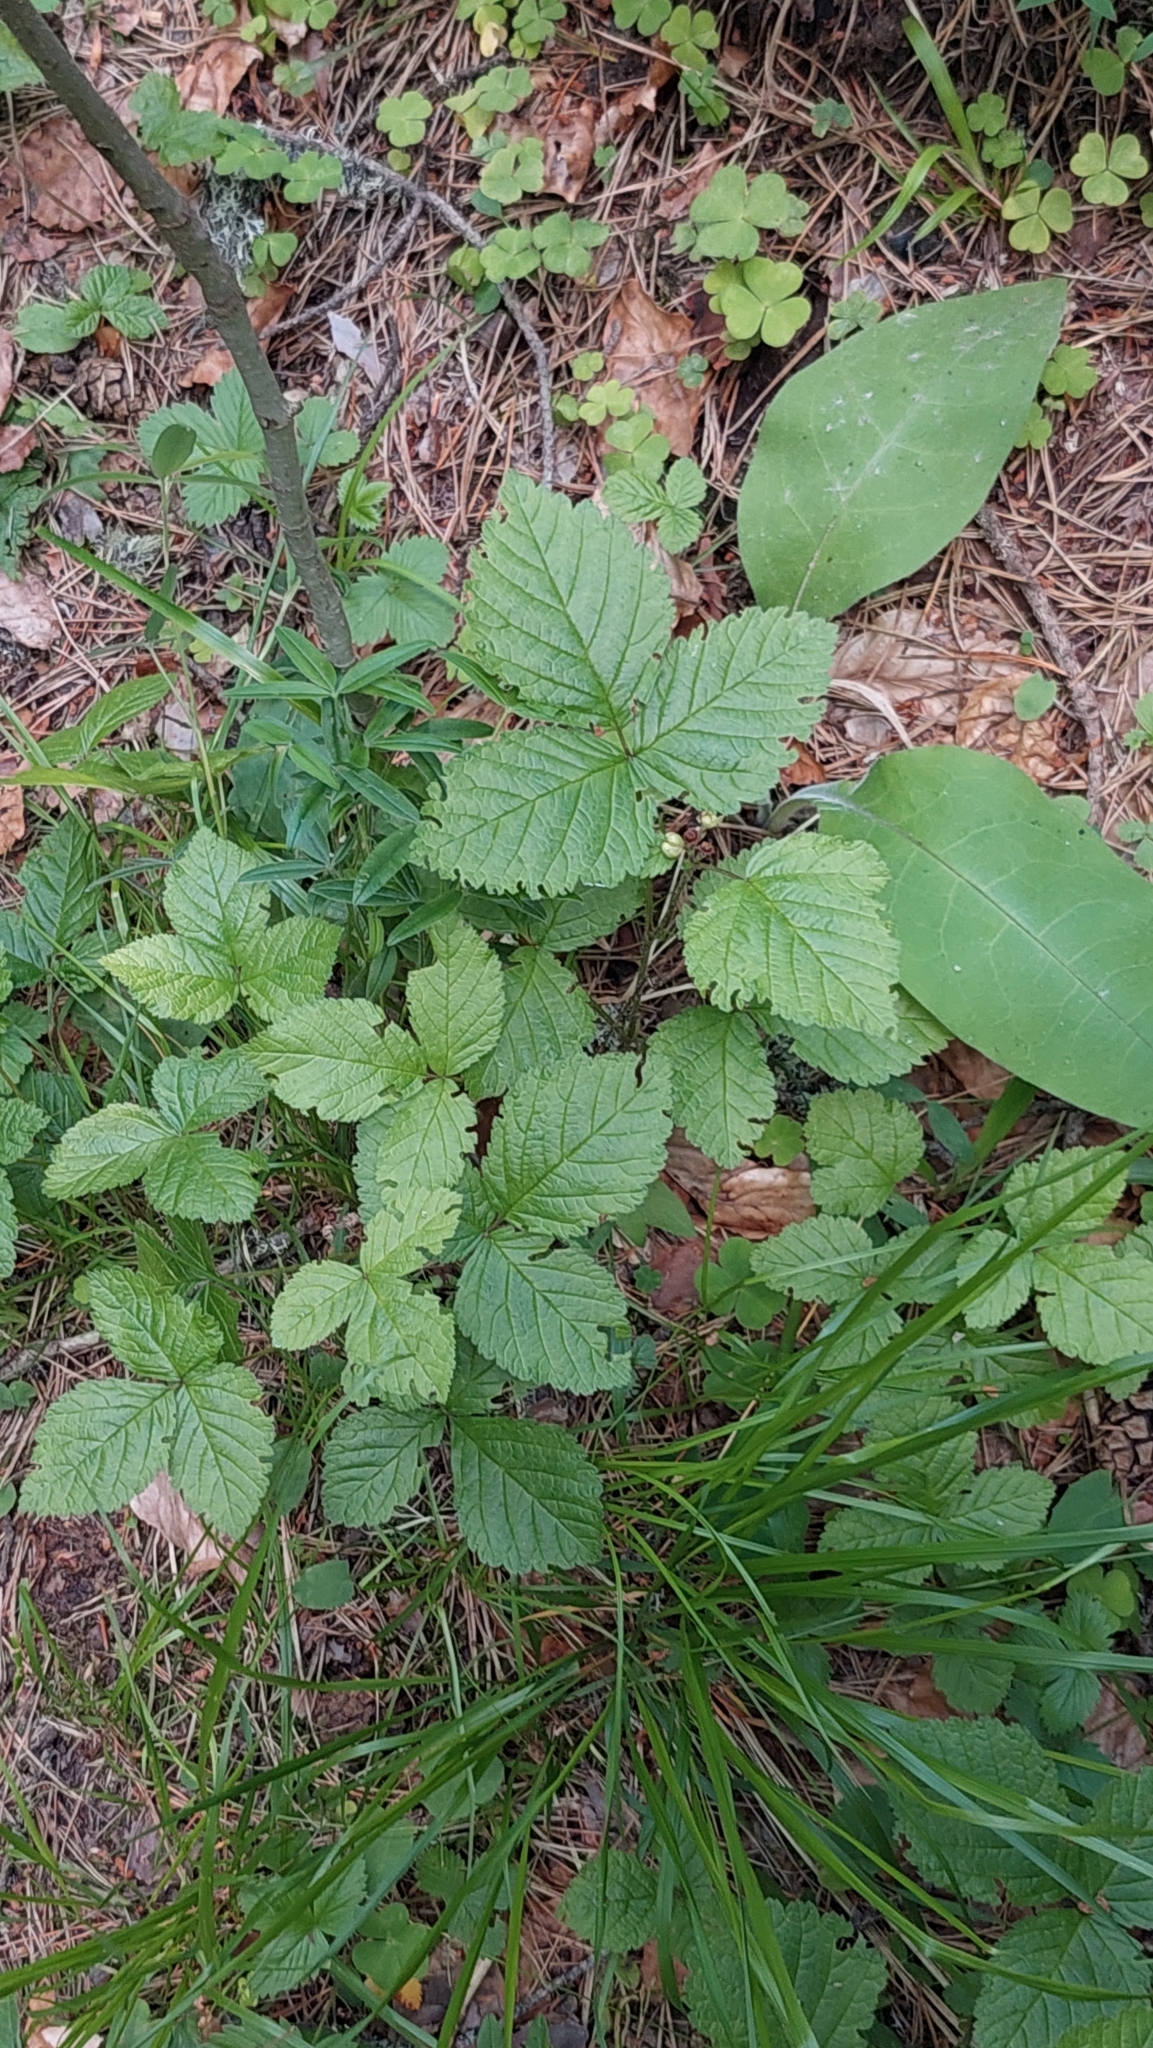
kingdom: Plantae
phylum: Tracheophyta
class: Magnoliopsida
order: Rosales
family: Rosaceae
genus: Rubus
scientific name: Rubus saxatilis
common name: Stone bramble
